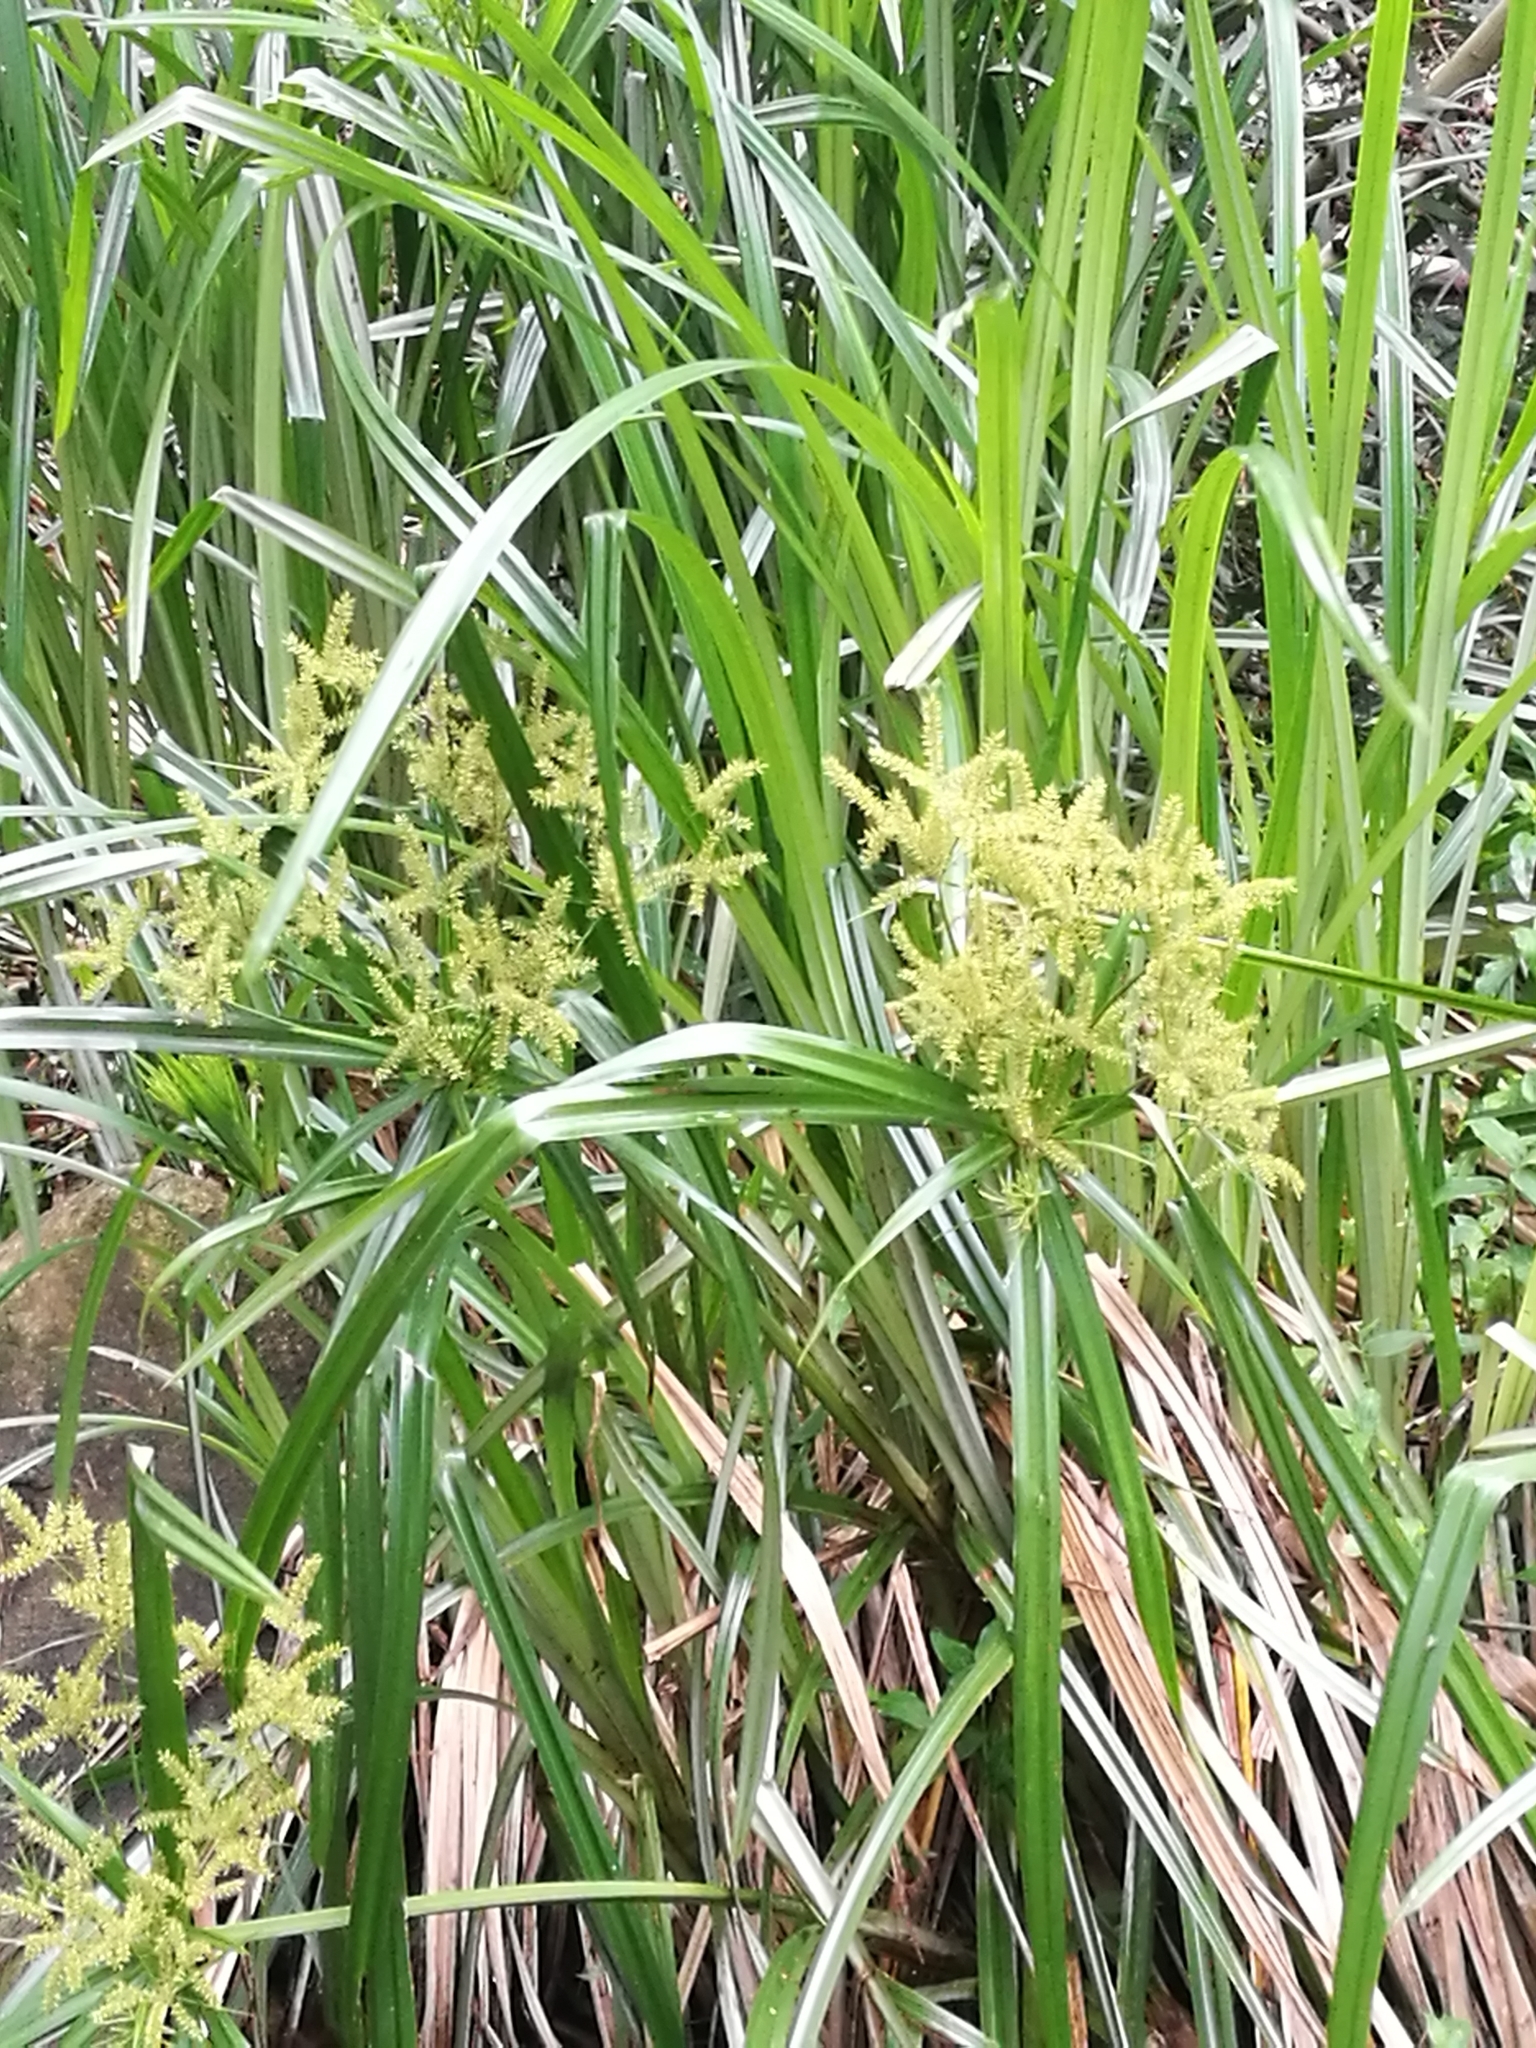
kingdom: Plantae
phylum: Tracheophyta
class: Liliopsida
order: Poales
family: Cyperaceae
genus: Cyperus
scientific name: Cyperus dives
